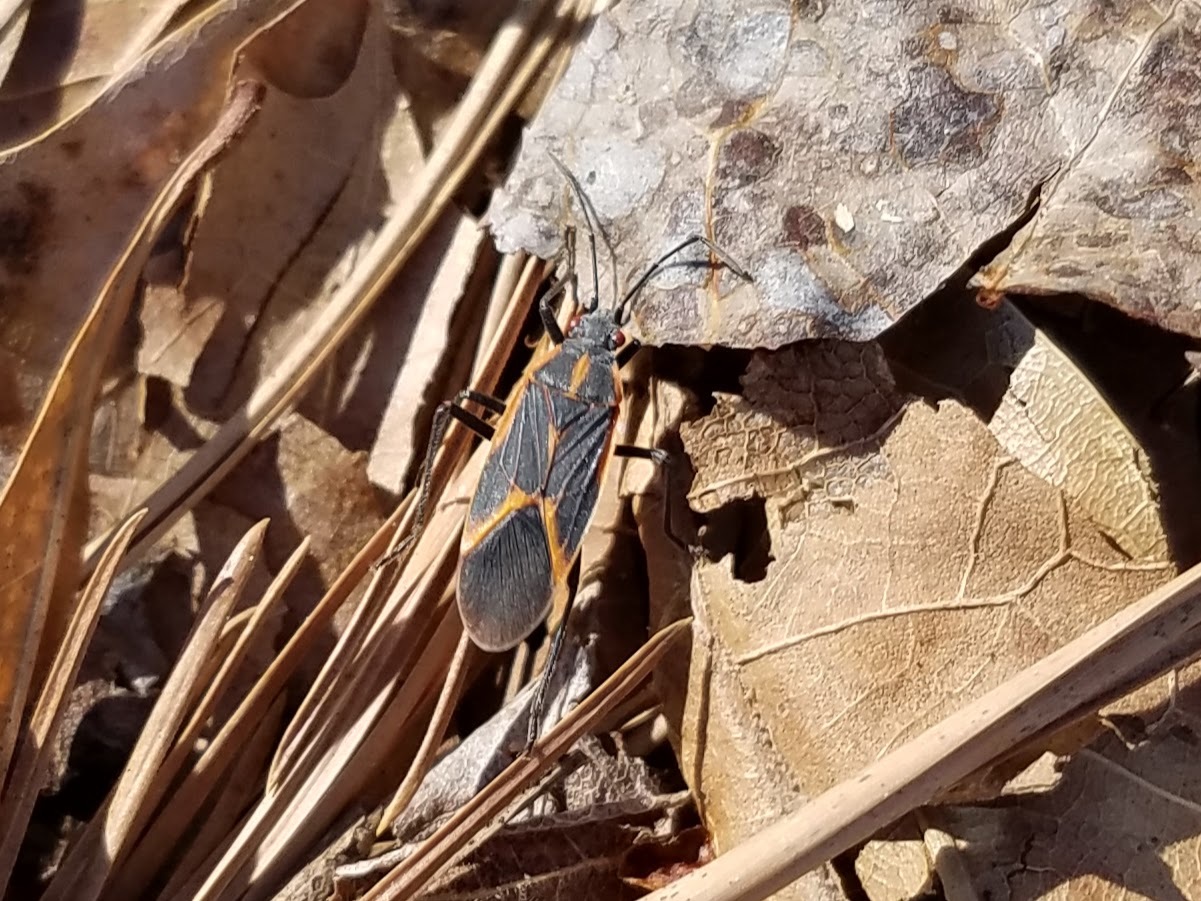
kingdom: Animalia
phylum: Arthropoda
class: Insecta
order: Hemiptera
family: Rhopalidae
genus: Boisea
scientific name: Boisea trivittata
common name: Boxelder bug
